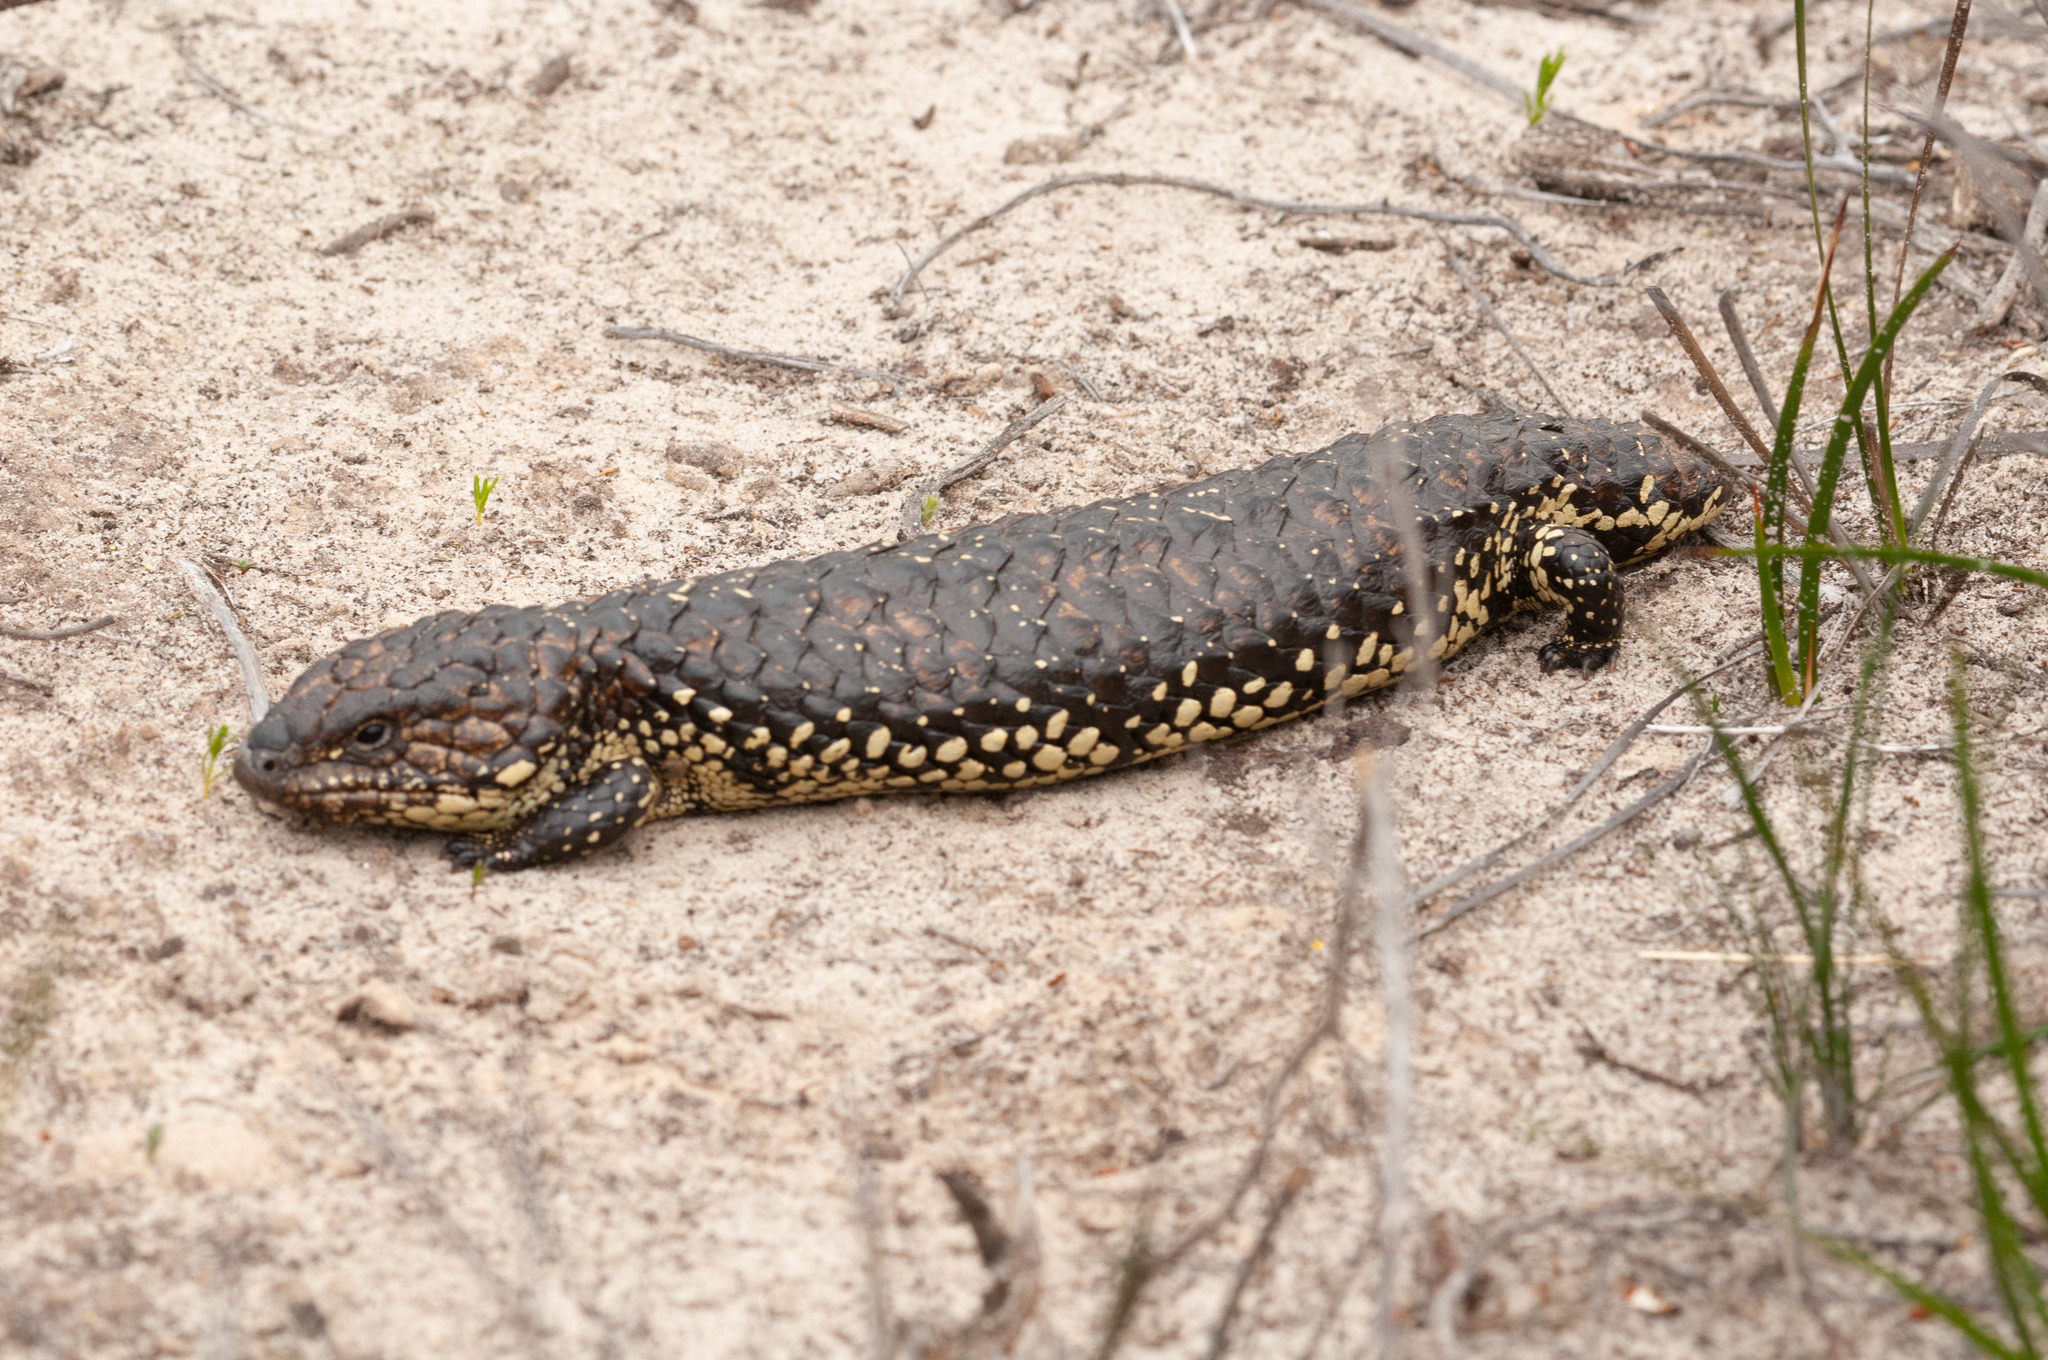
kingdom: Animalia
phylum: Chordata
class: Squamata
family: Scincidae
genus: Tiliqua
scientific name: Tiliqua rugosa
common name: Pinecone lizard
